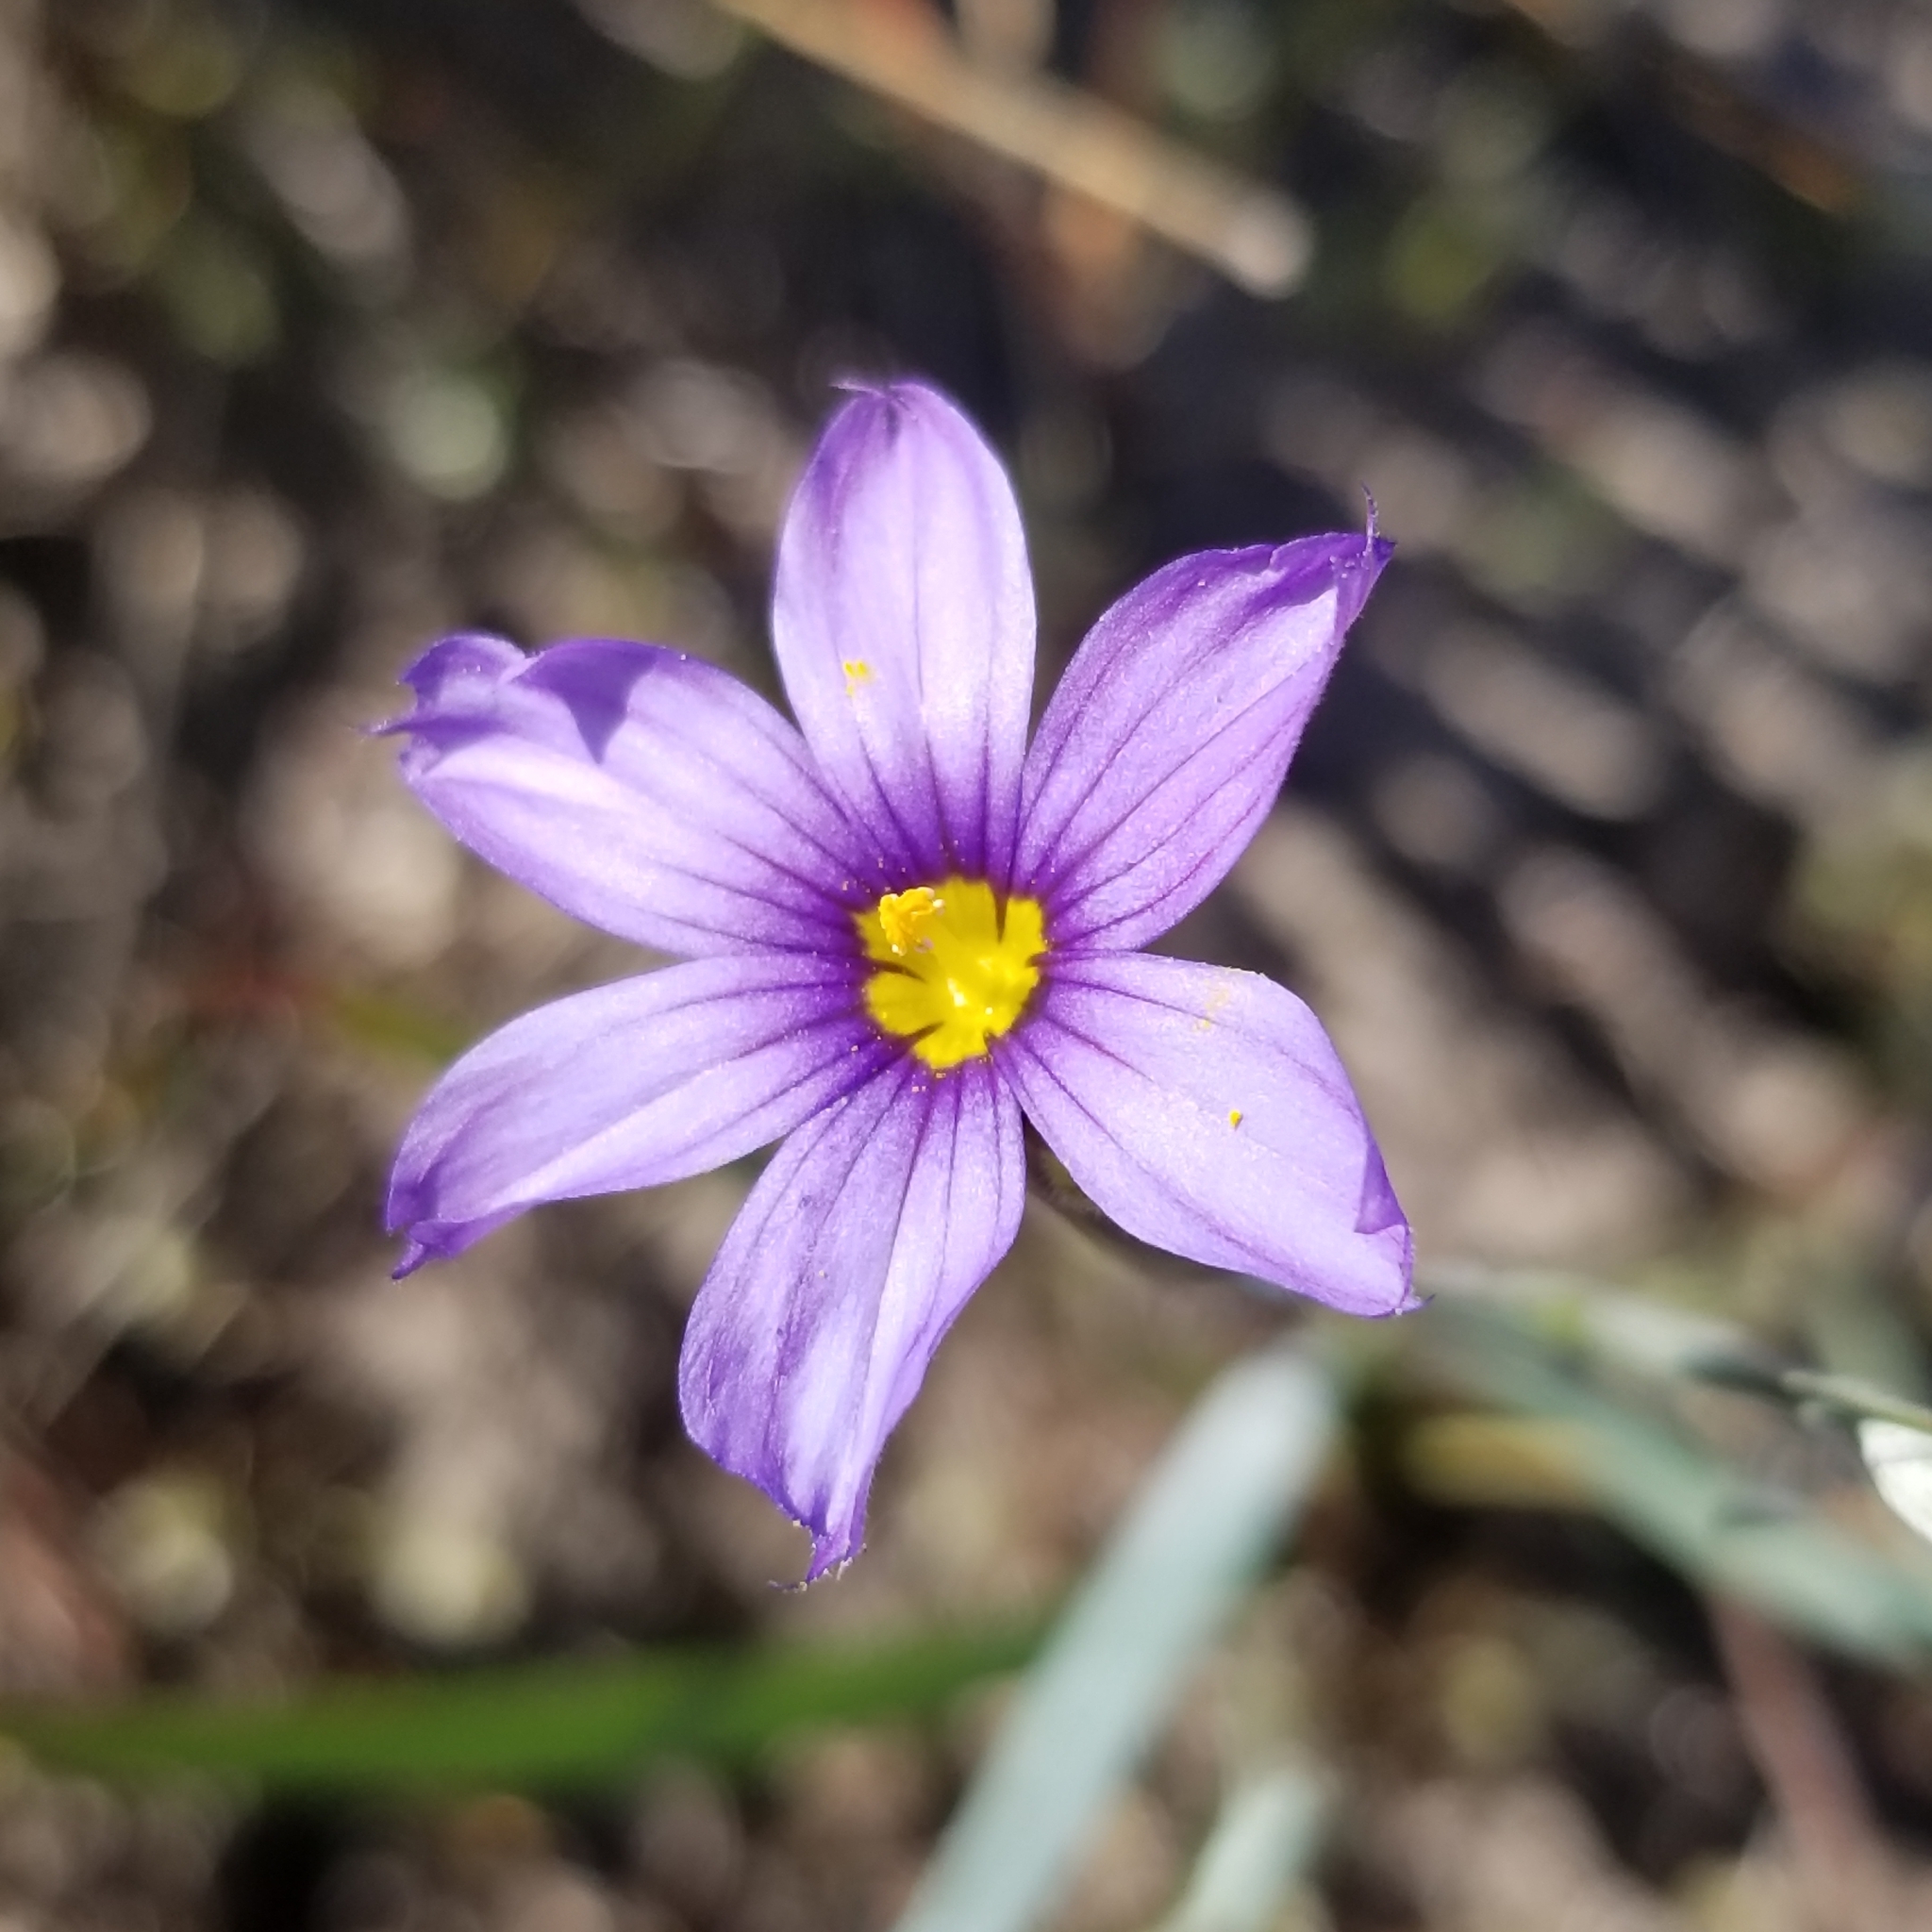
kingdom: Plantae
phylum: Tracheophyta
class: Liliopsida
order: Asparagales
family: Iridaceae
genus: Sisyrinchium
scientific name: Sisyrinchium bellum
